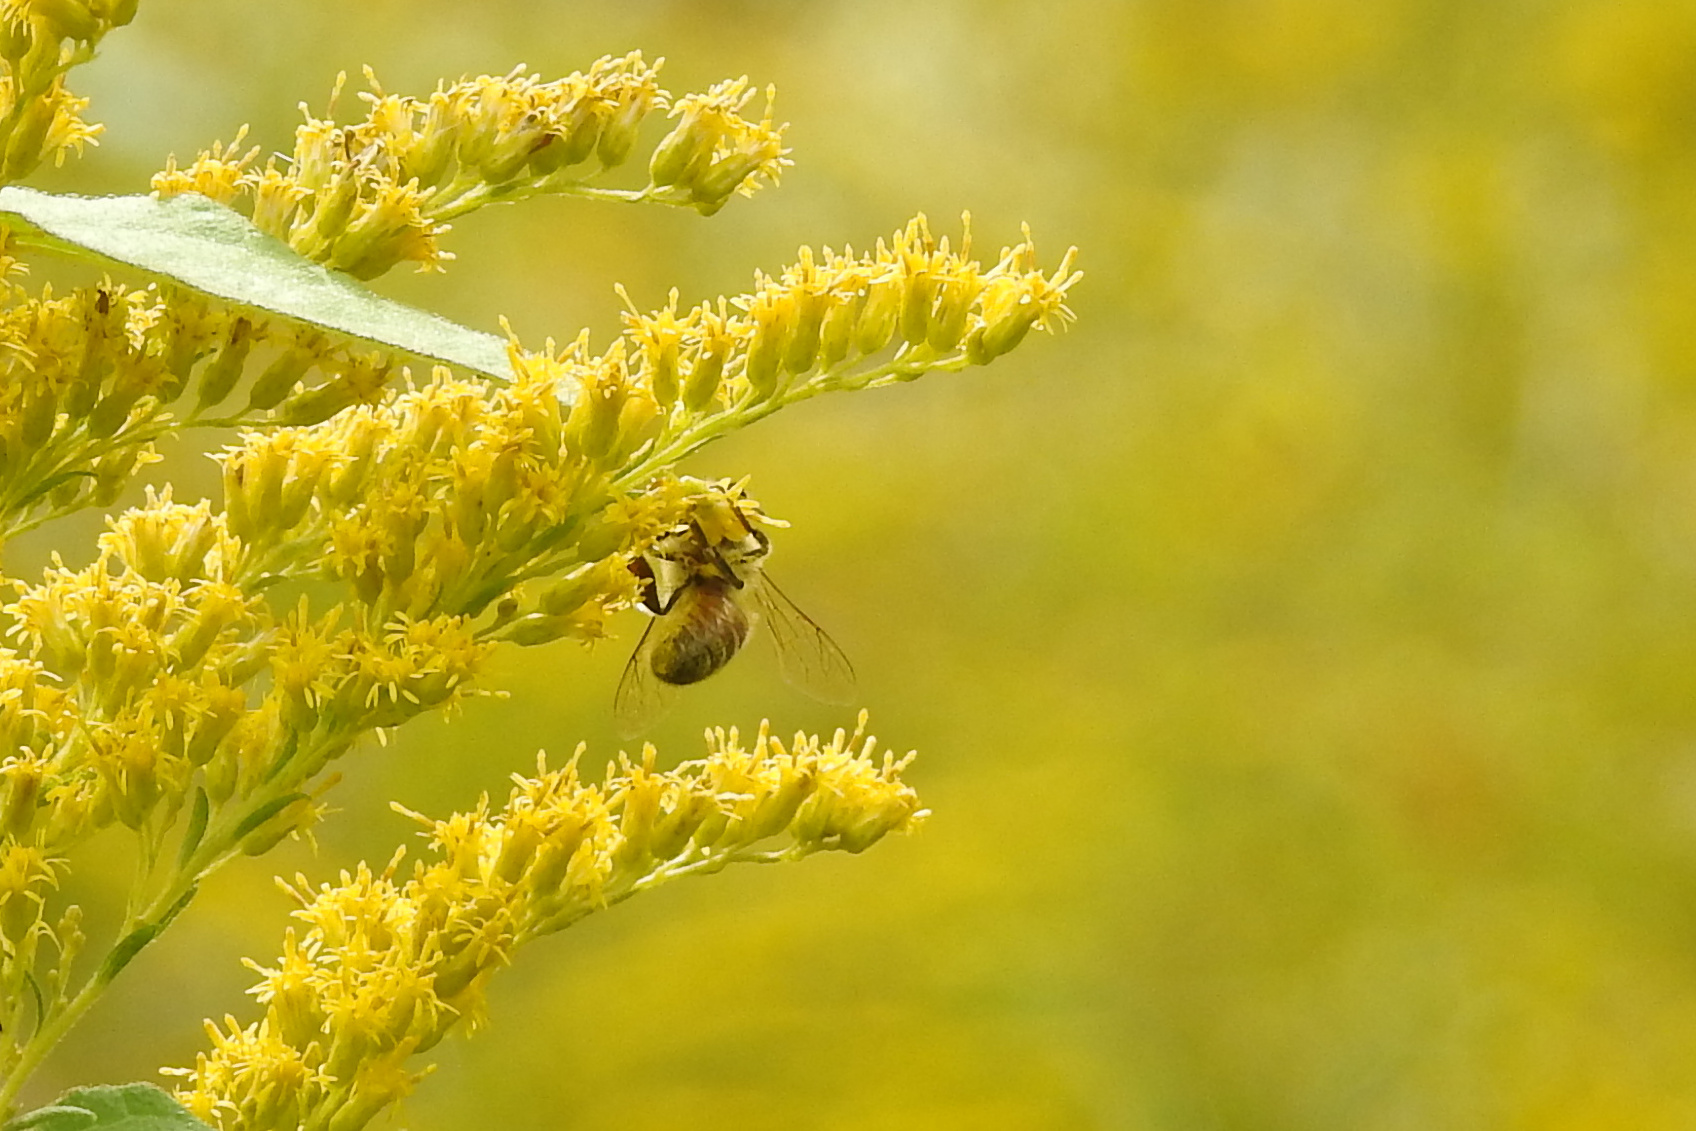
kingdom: Animalia
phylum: Arthropoda
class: Insecta
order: Hymenoptera
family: Apidae
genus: Apis
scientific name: Apis mellifera
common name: Honey bee
